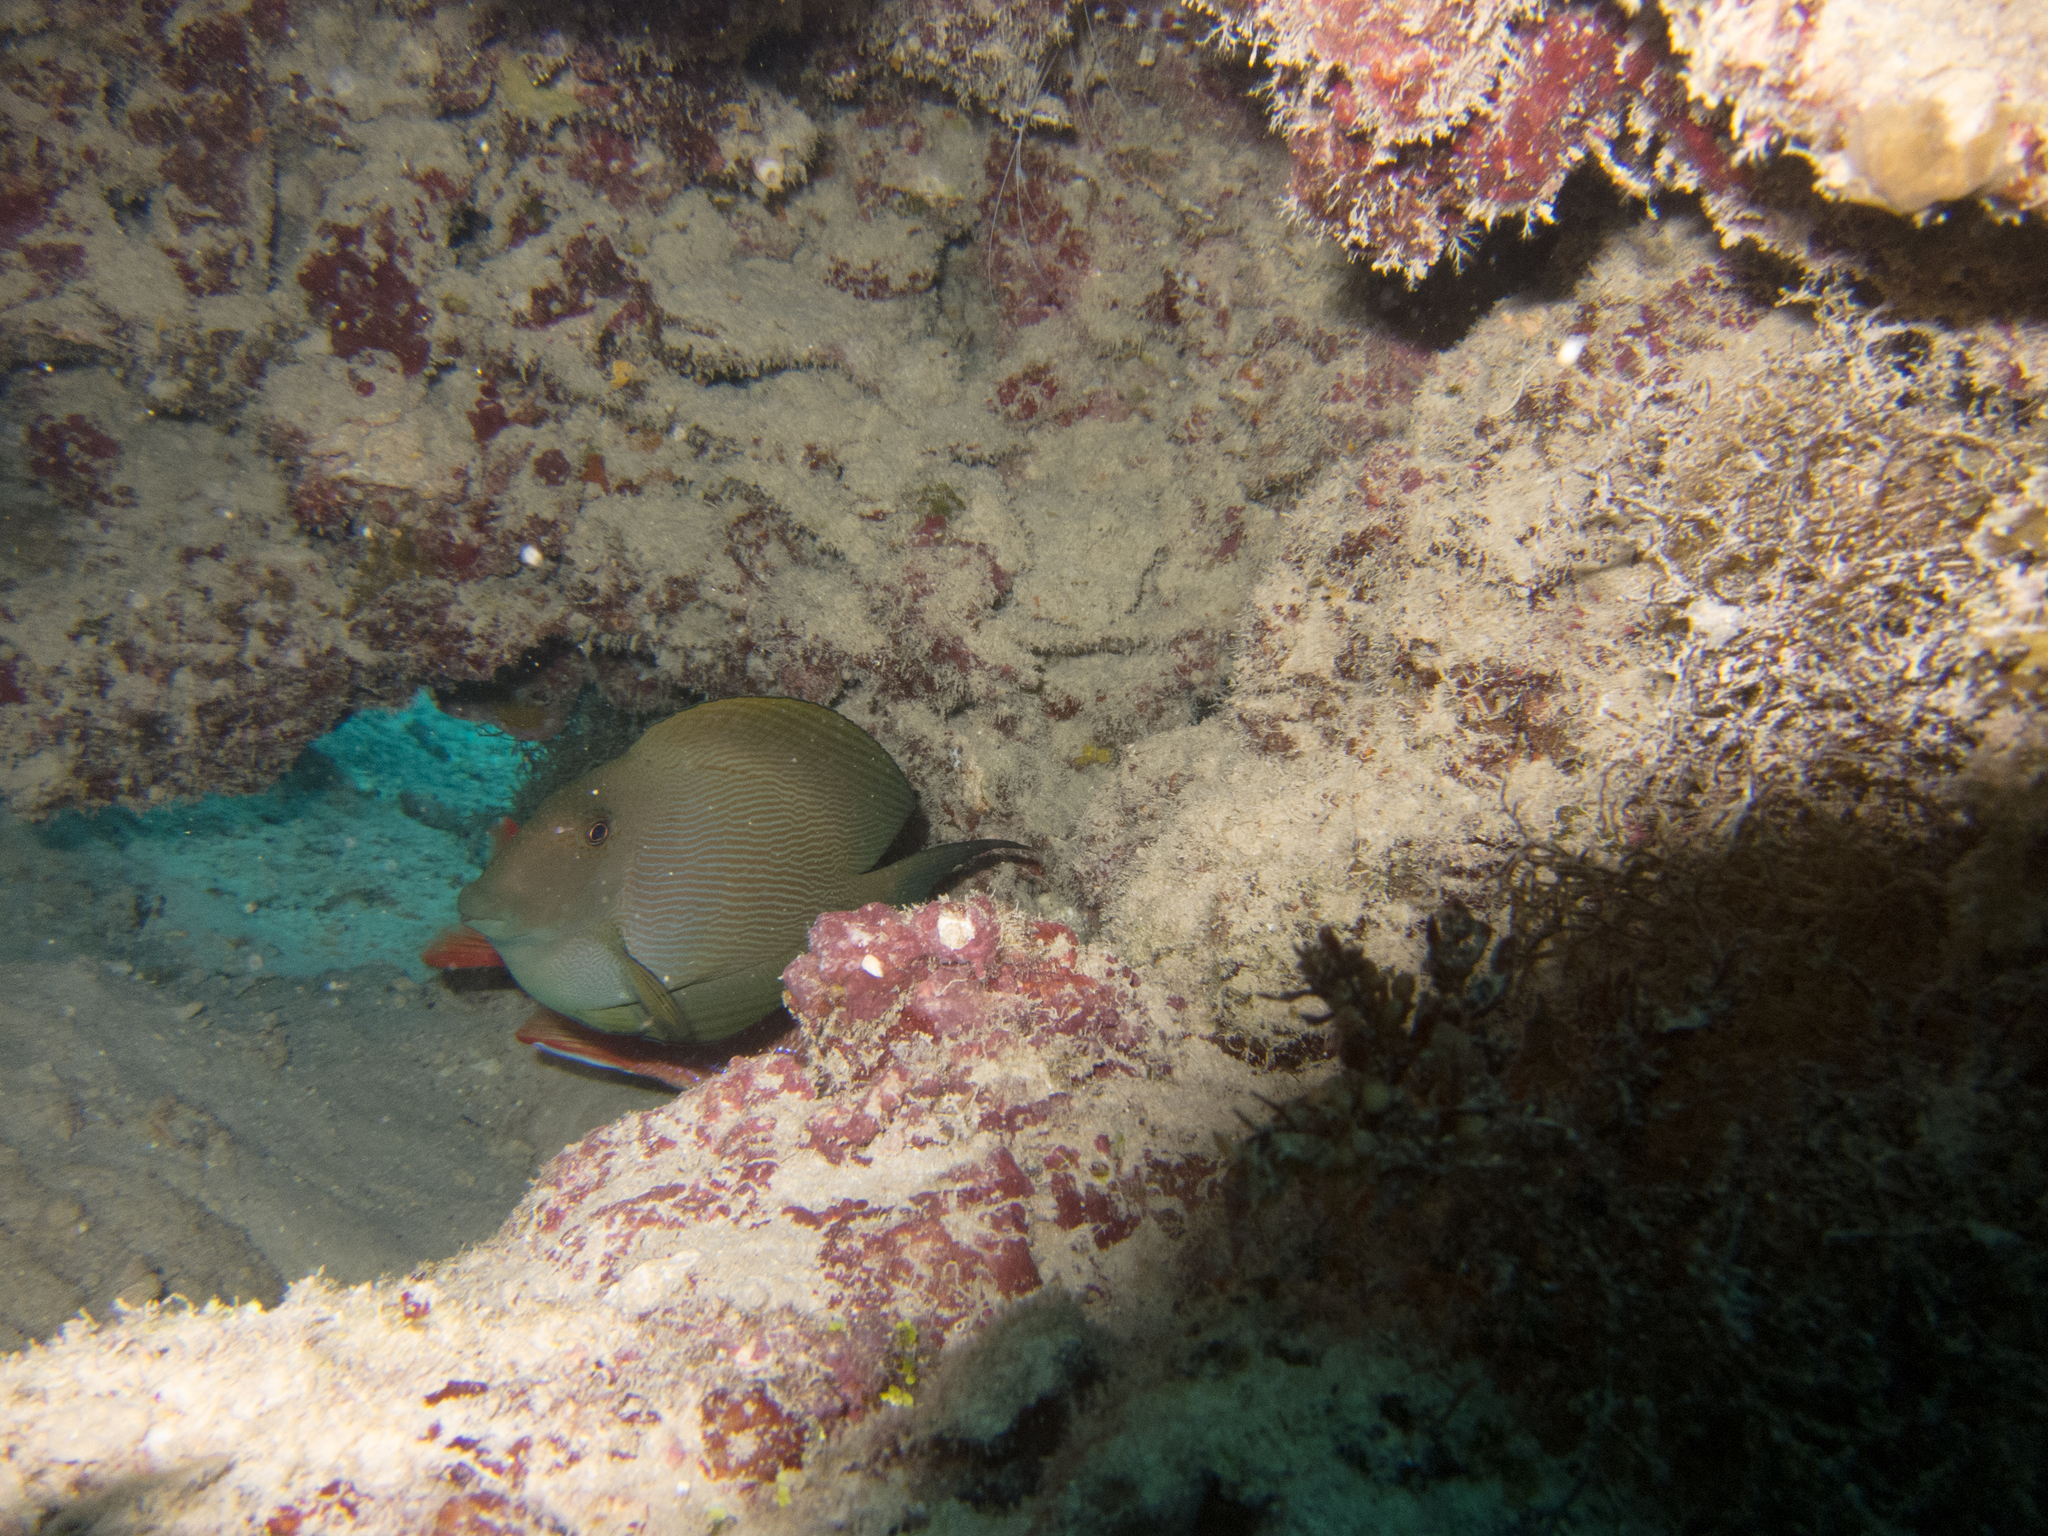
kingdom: Animalia
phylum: Chordata
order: Perciformes
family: Acanthuridae
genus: Ctenochaetus
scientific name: Ctenochaetus striatus
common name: Bristle-toothed surgeonfish
